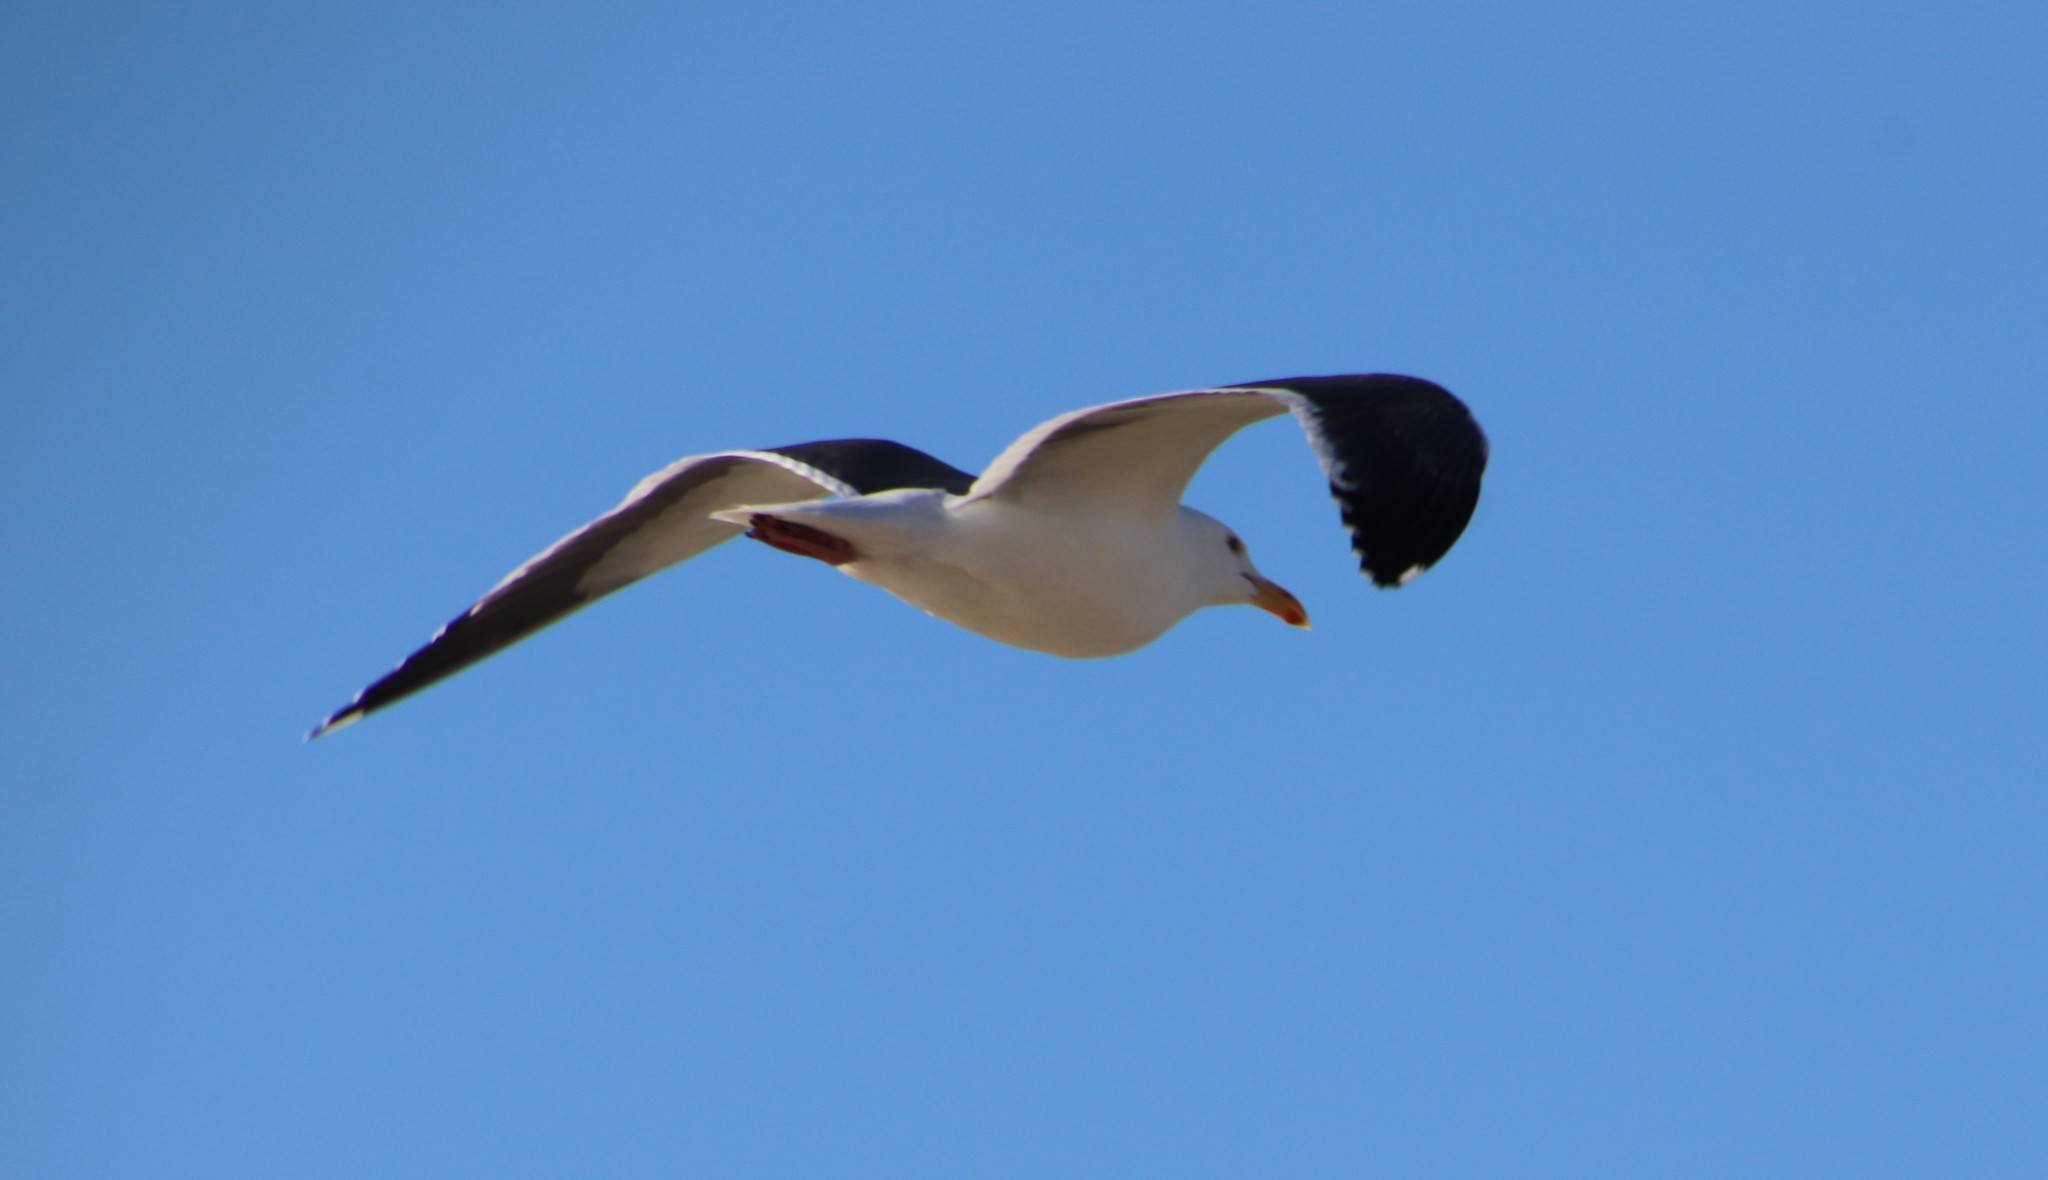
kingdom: Animalia
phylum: Chordata
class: Aves
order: Charadriiformes
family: Laridae
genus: Larus
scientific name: Larus occidentalis
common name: Western gull
